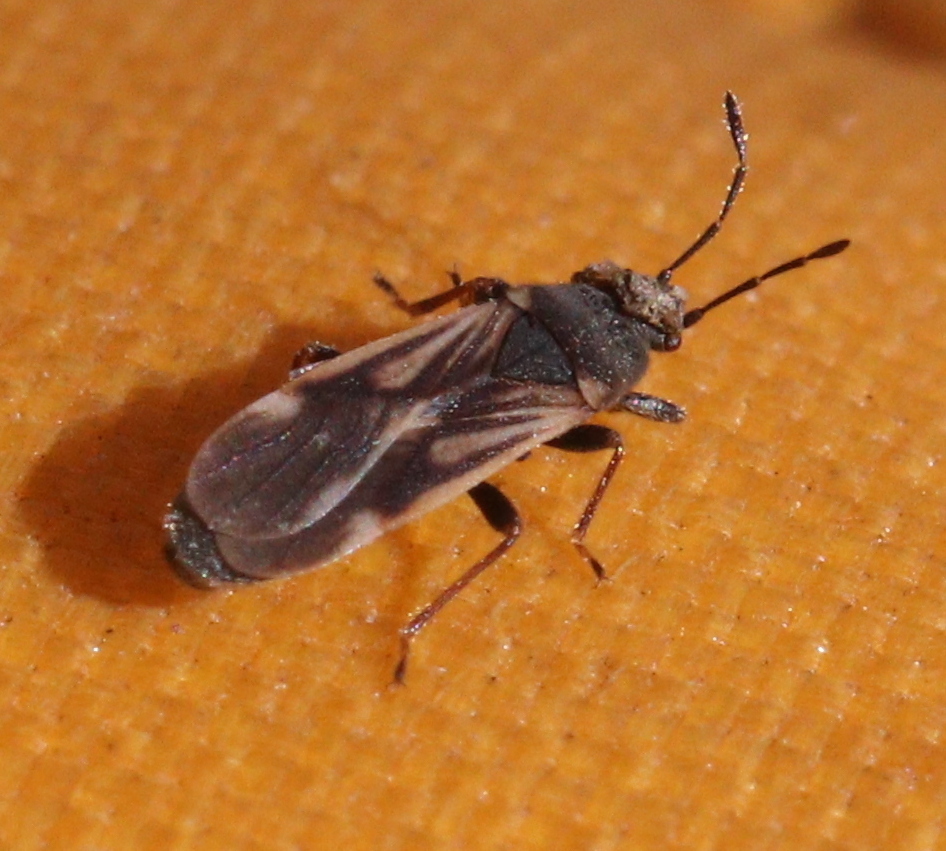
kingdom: Animalia
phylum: Arthropoda
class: Insecta
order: Hemiptera
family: Blissidae
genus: Ischnodemus
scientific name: Ischnodemus sabuleti
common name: European cinchbug
